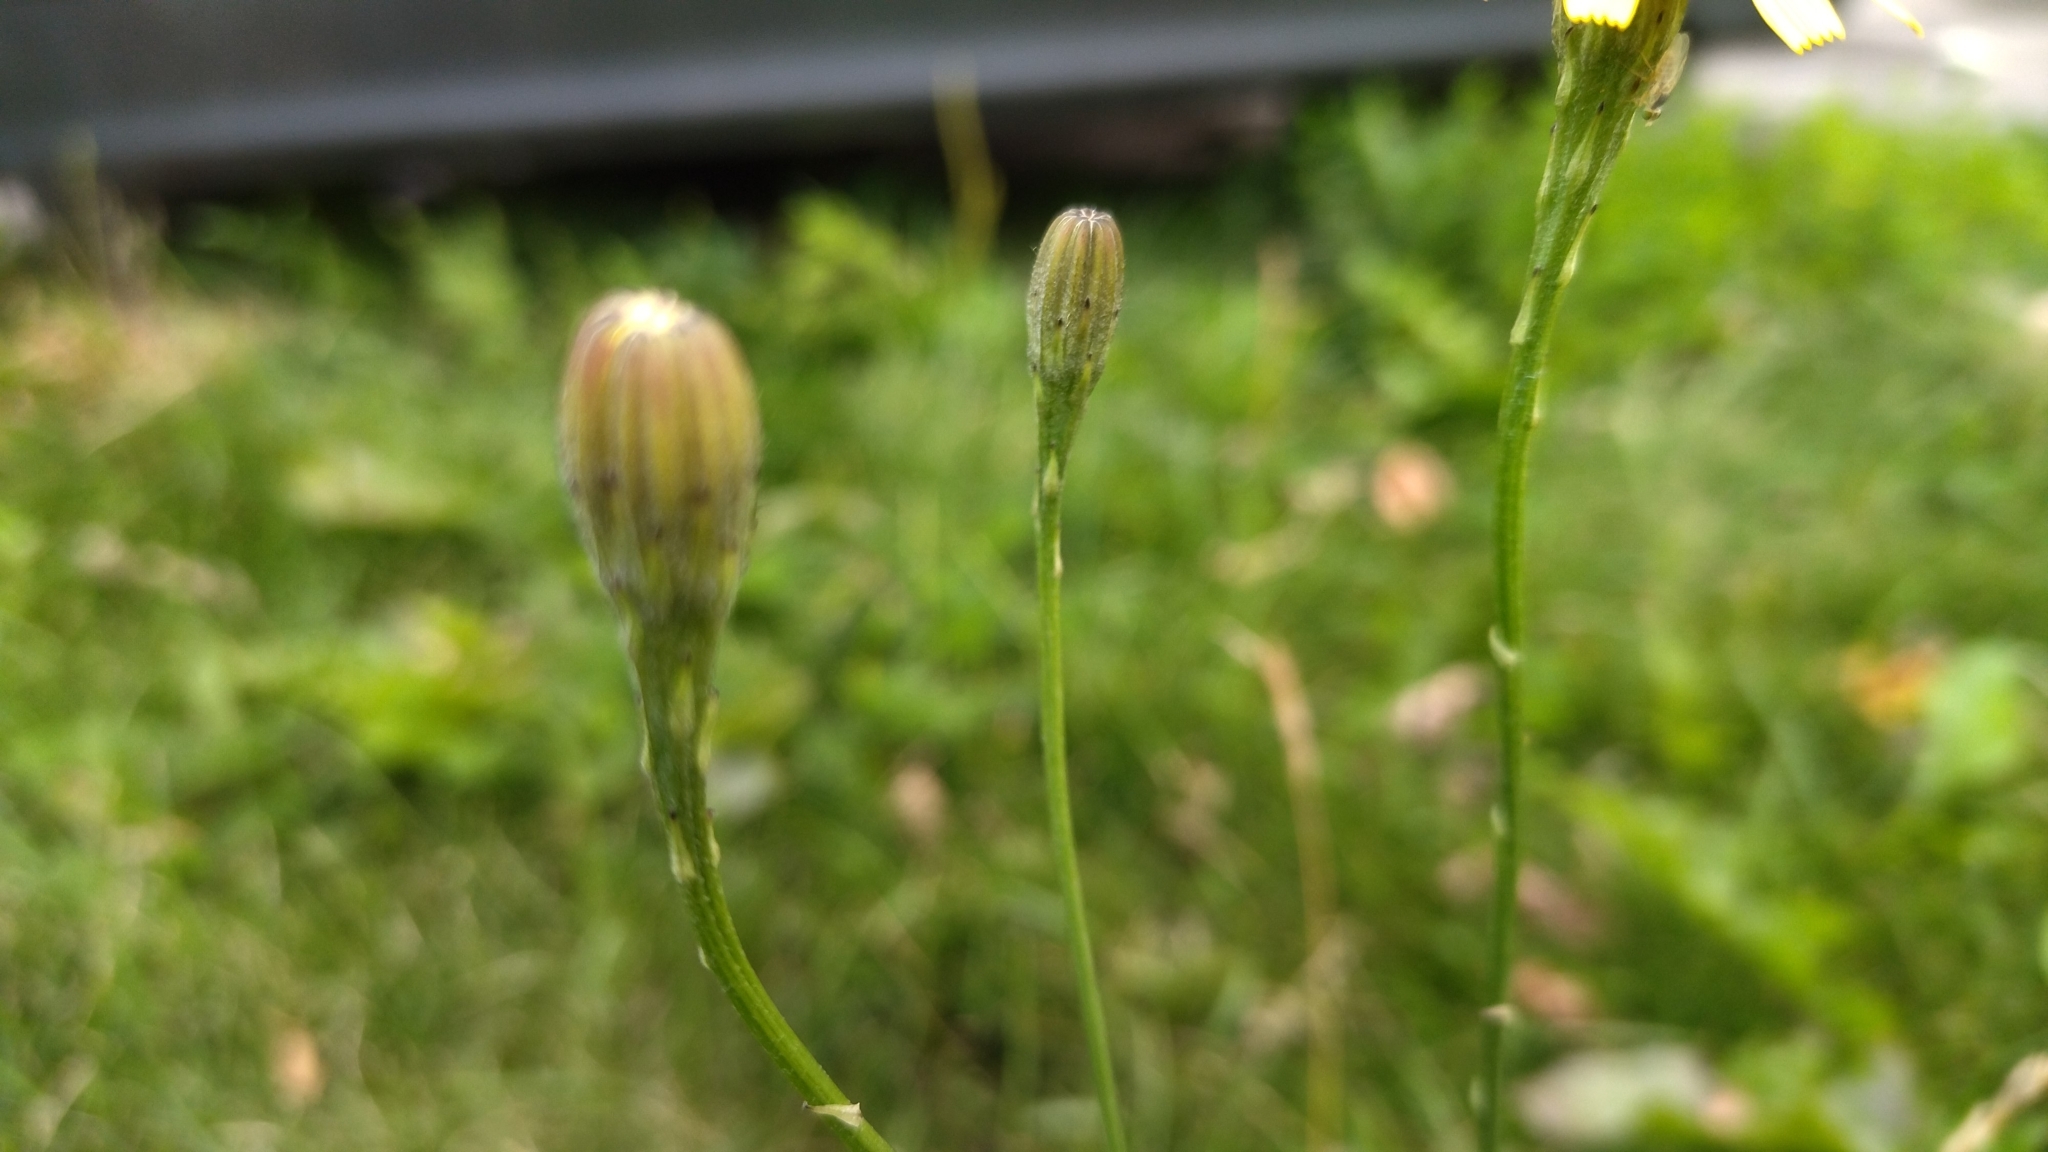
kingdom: Plantae
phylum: Tracheophyta
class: Magnoliopsida
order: Asterales
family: Asteraceae
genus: Scorzoneroides
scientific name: Scorzoneroides autumnalis
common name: Autumn hawkbit
